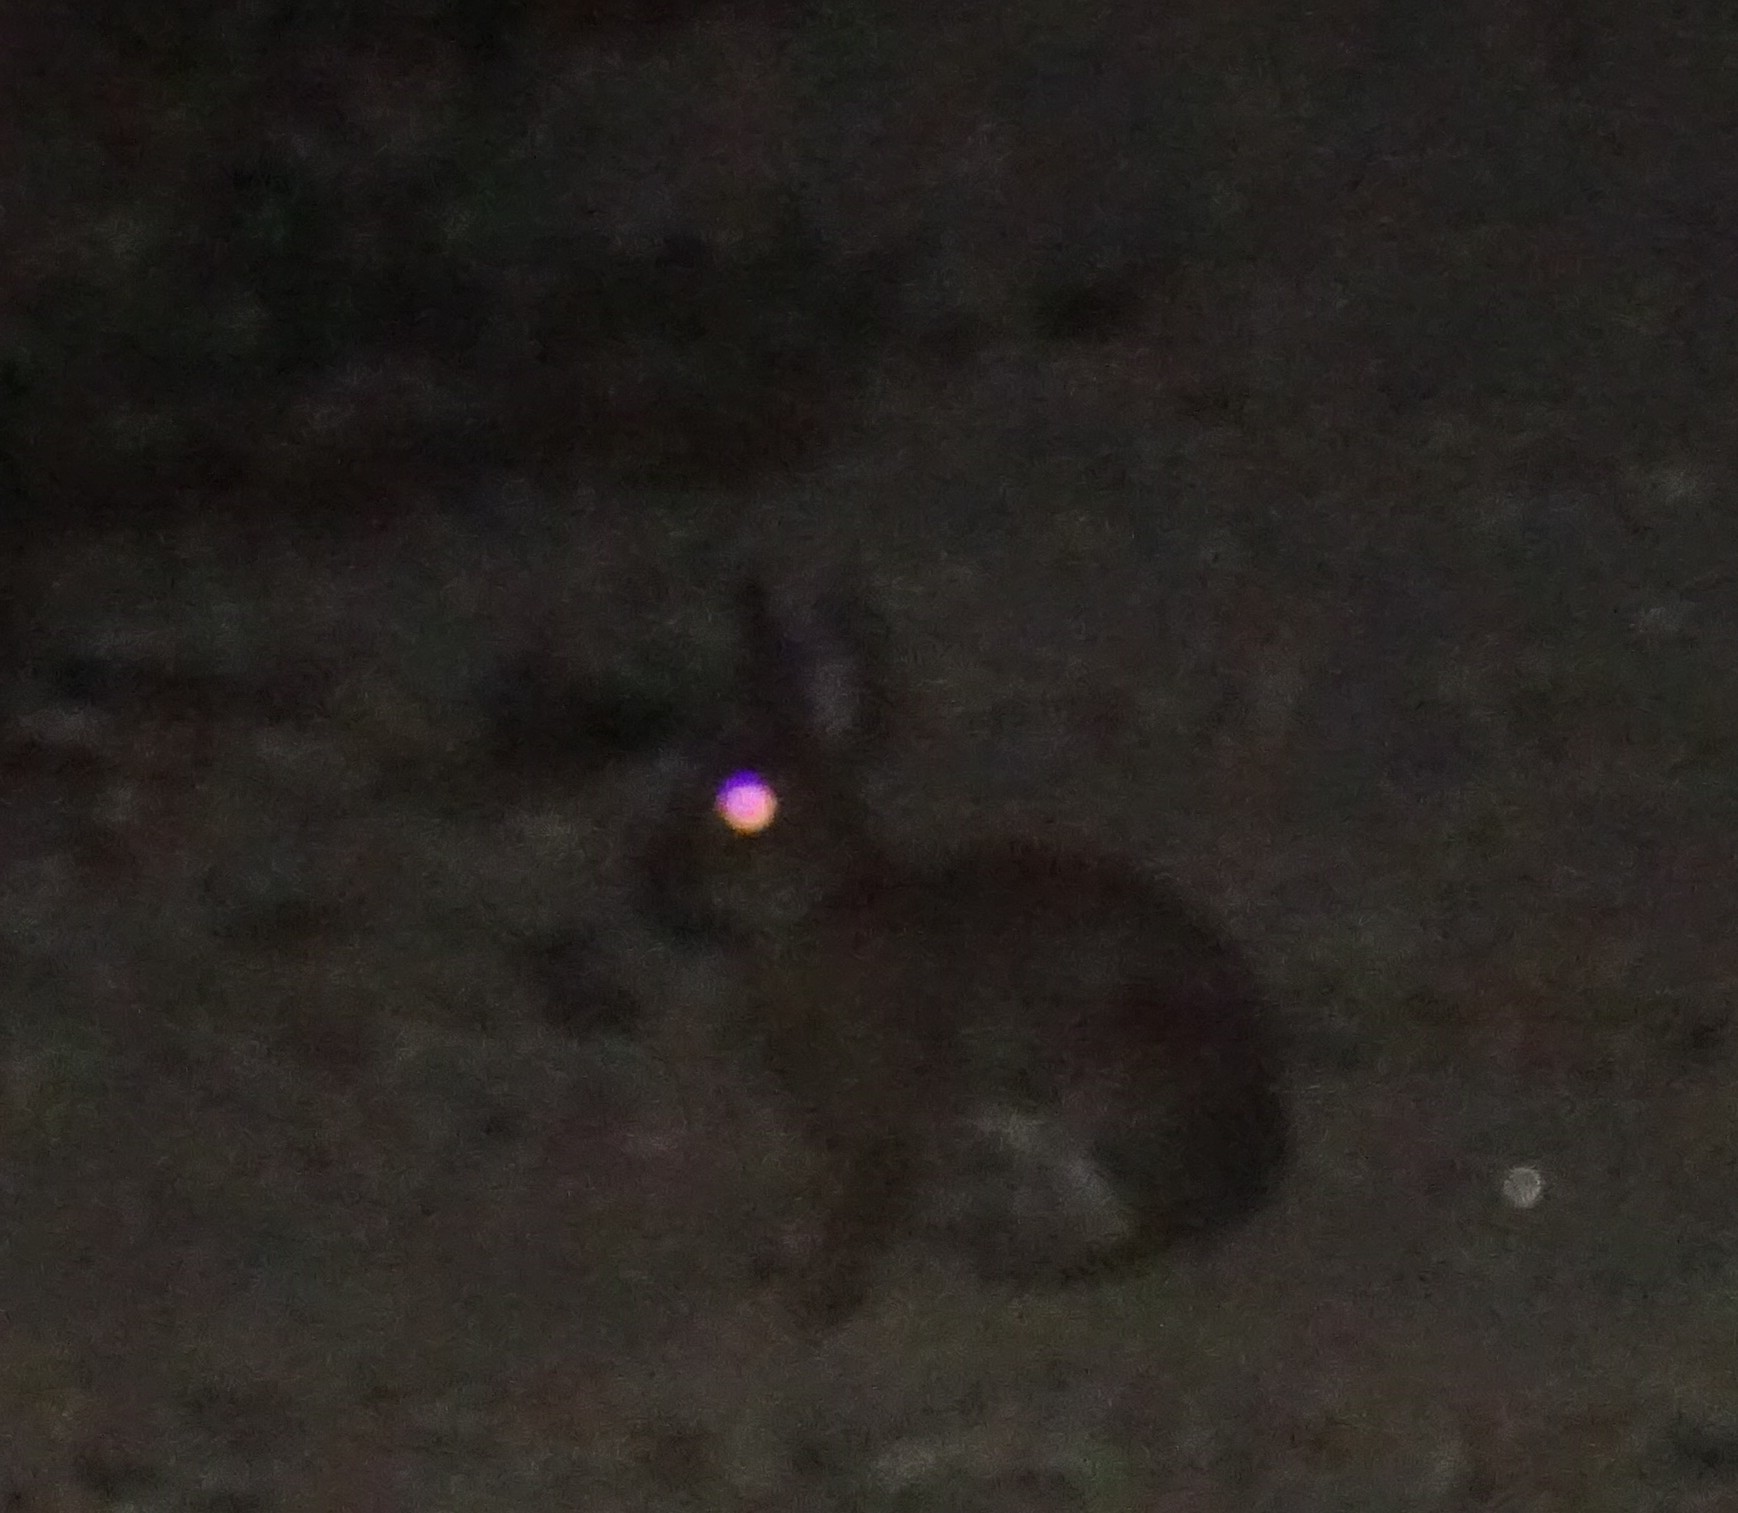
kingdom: Animalia
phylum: Chordata
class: Mammalia
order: Lagomorpha
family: Leporidae
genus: Oryctolagus
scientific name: Oryctolagus cuniculus
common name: European rabbit
